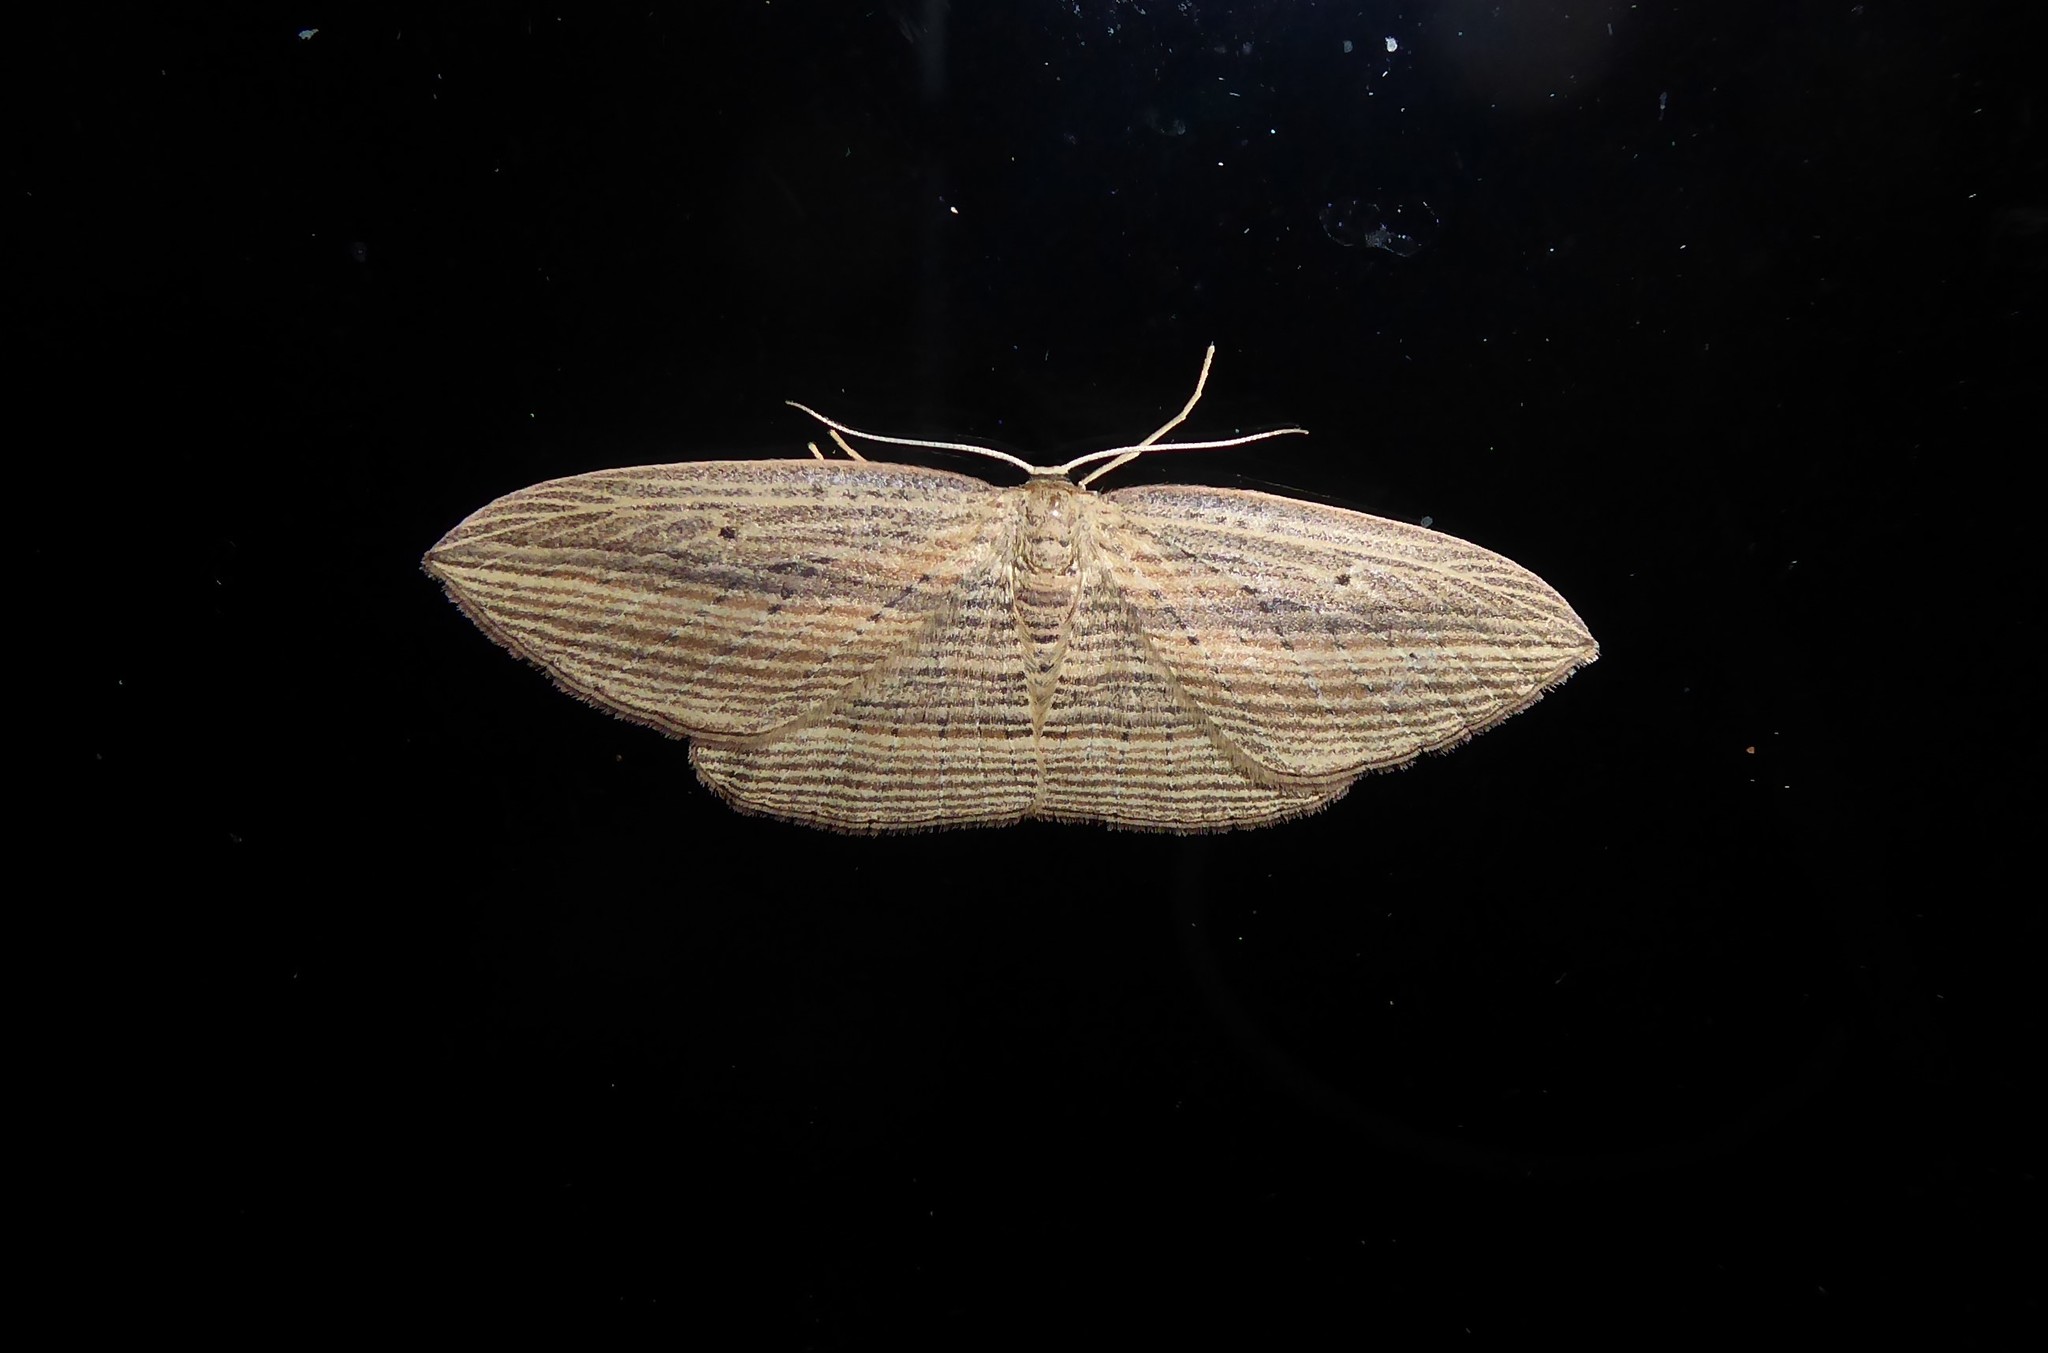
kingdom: Animalia
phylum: Arthropoda
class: Insecta
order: Lepidoptera
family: Geometridae
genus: Epiphryne
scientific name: Epiphryne verriculata
